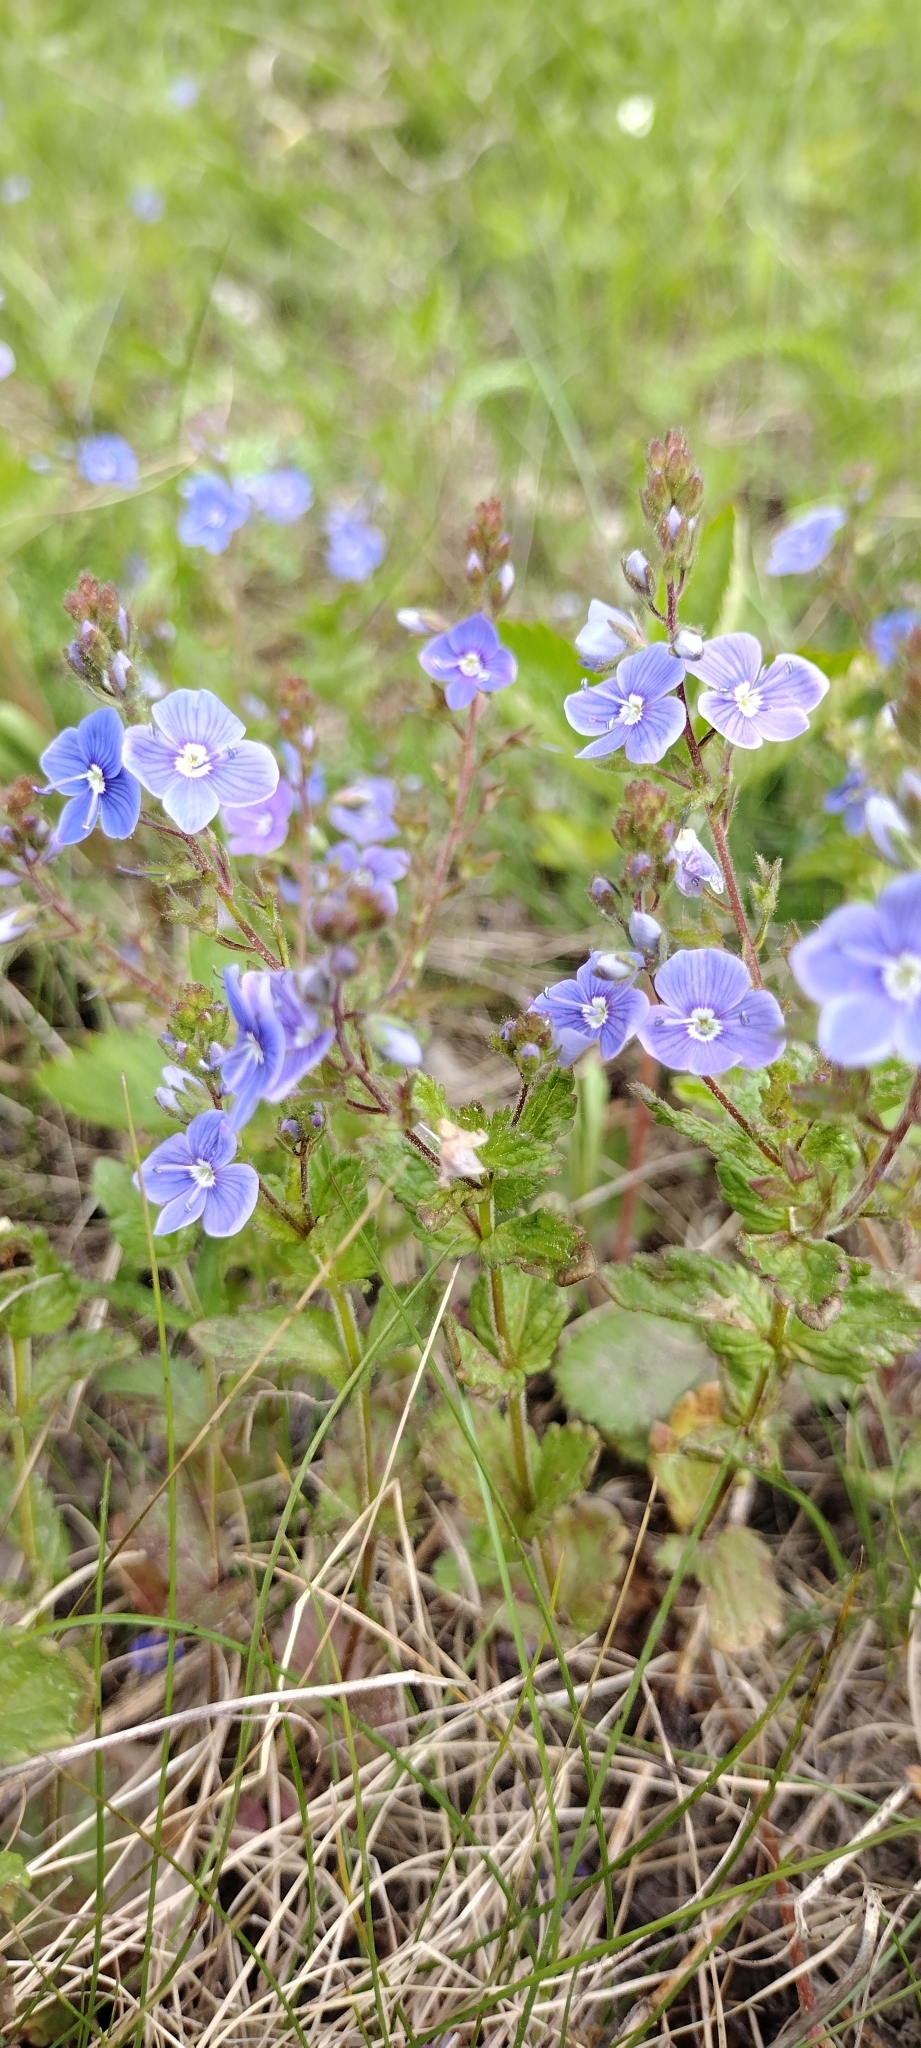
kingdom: Plantae
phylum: Tracheophyta
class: Magnoliopsida
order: Lamiales
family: Plantaginaceae
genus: Veronica
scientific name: Veronica chamaedrys
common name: Germander speedwell
